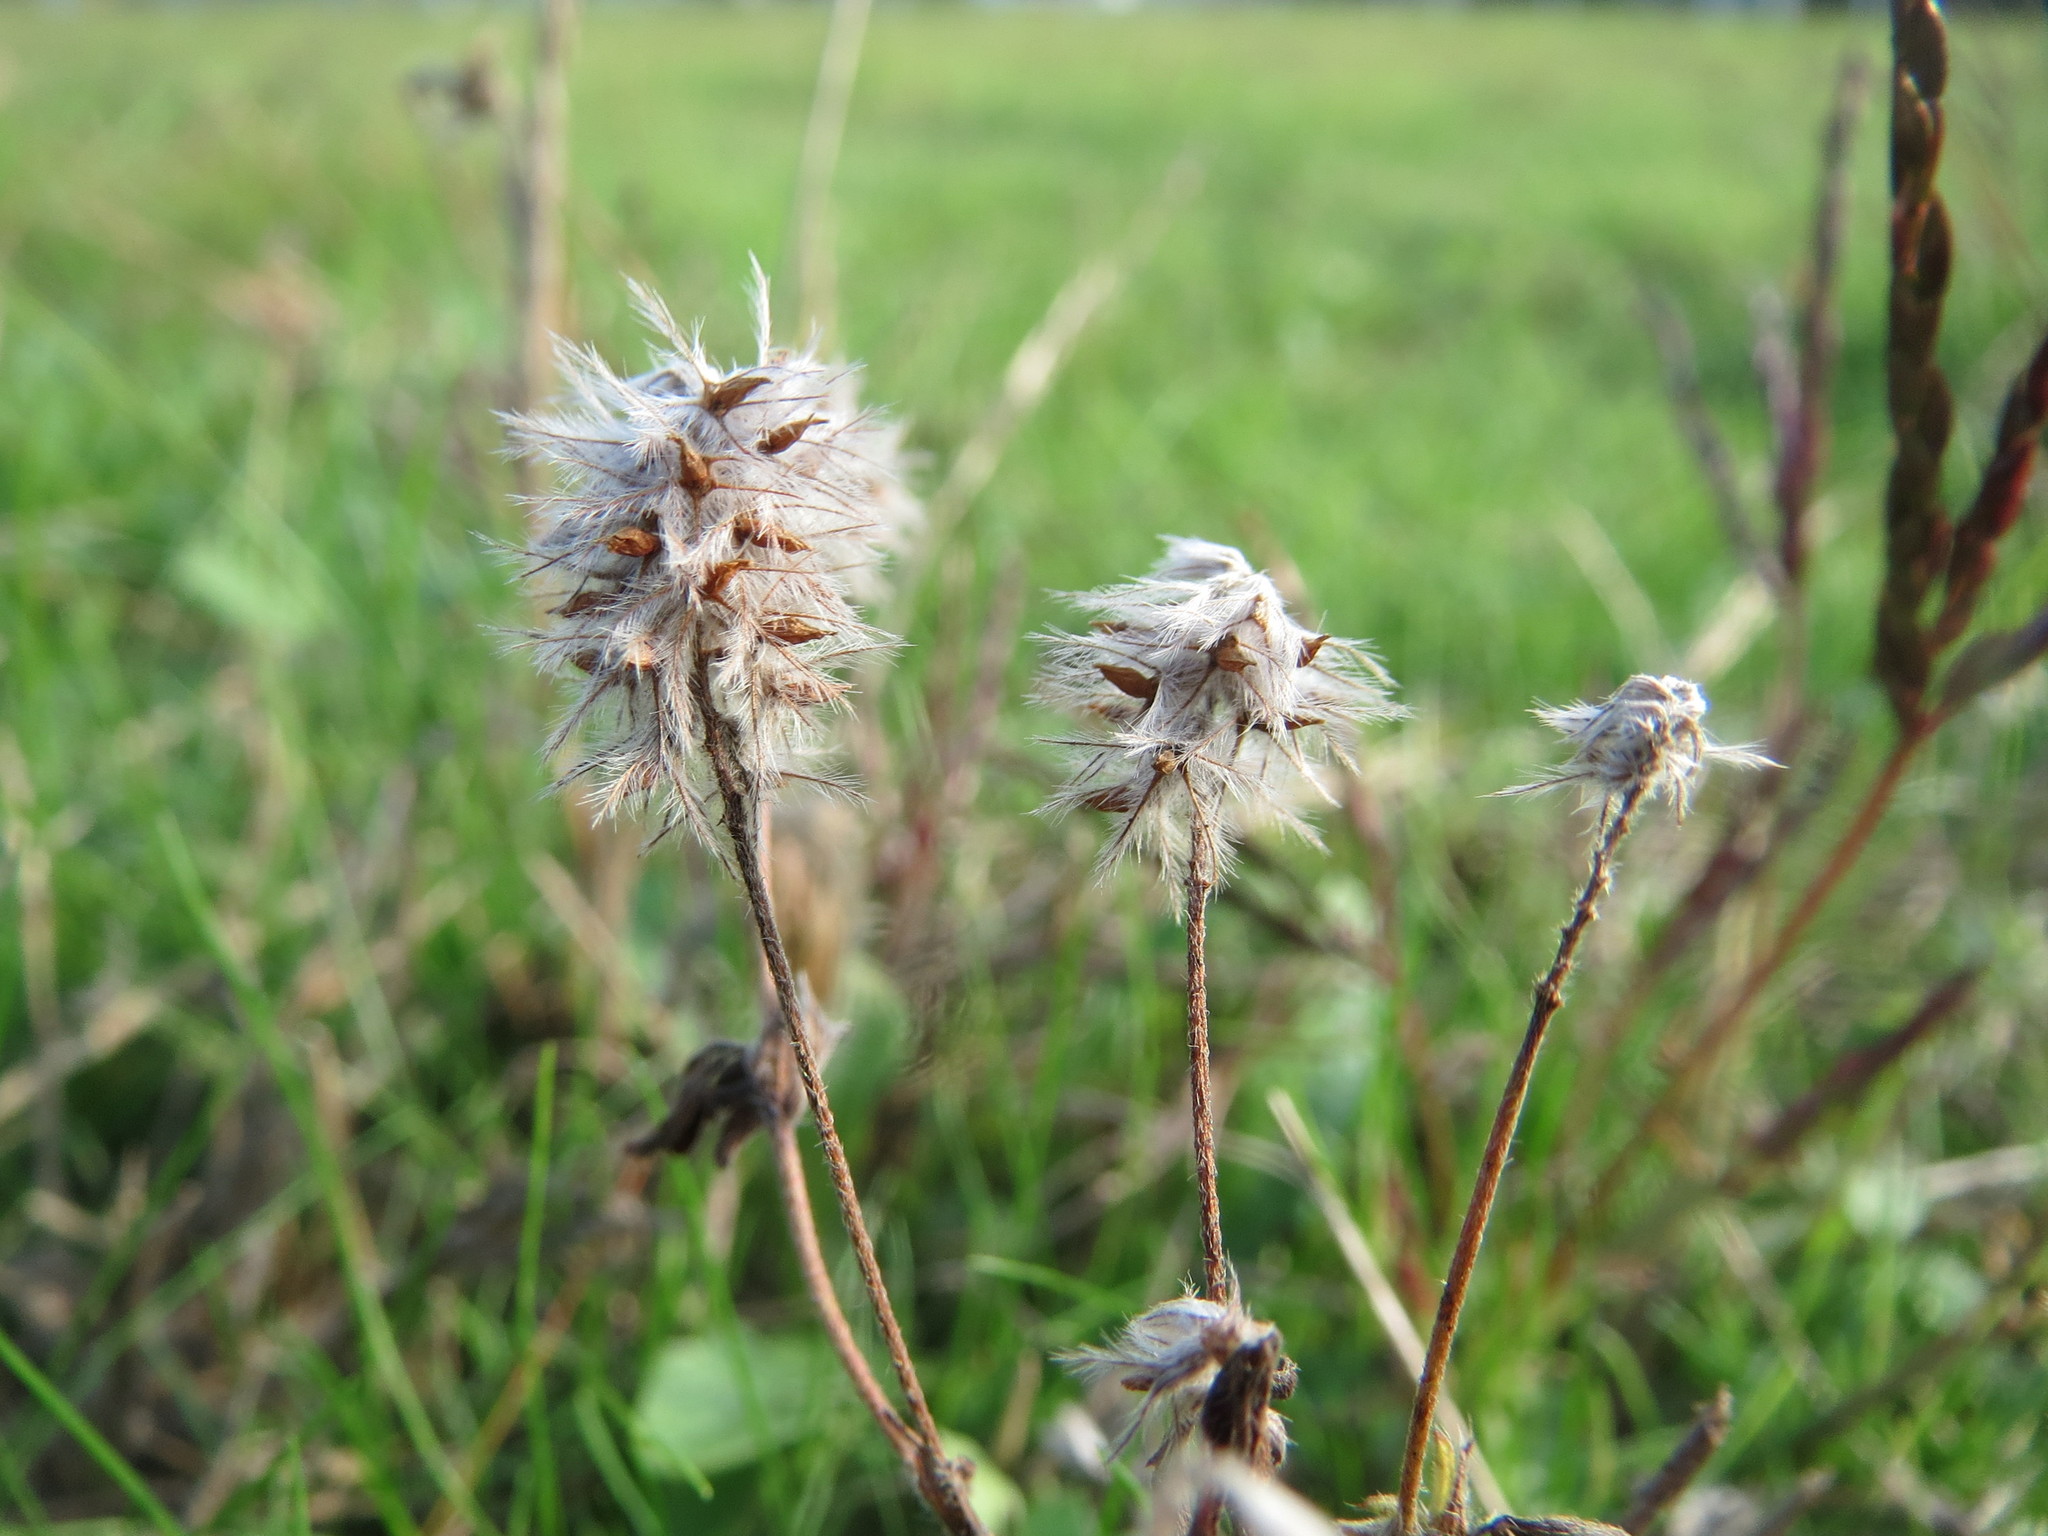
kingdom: Plantae
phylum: Tracheophyta
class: Magnoliopsida
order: Fabales
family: Fabaceae
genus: Trifolium
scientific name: Trifolium arvense
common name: Hare's-foot clover
